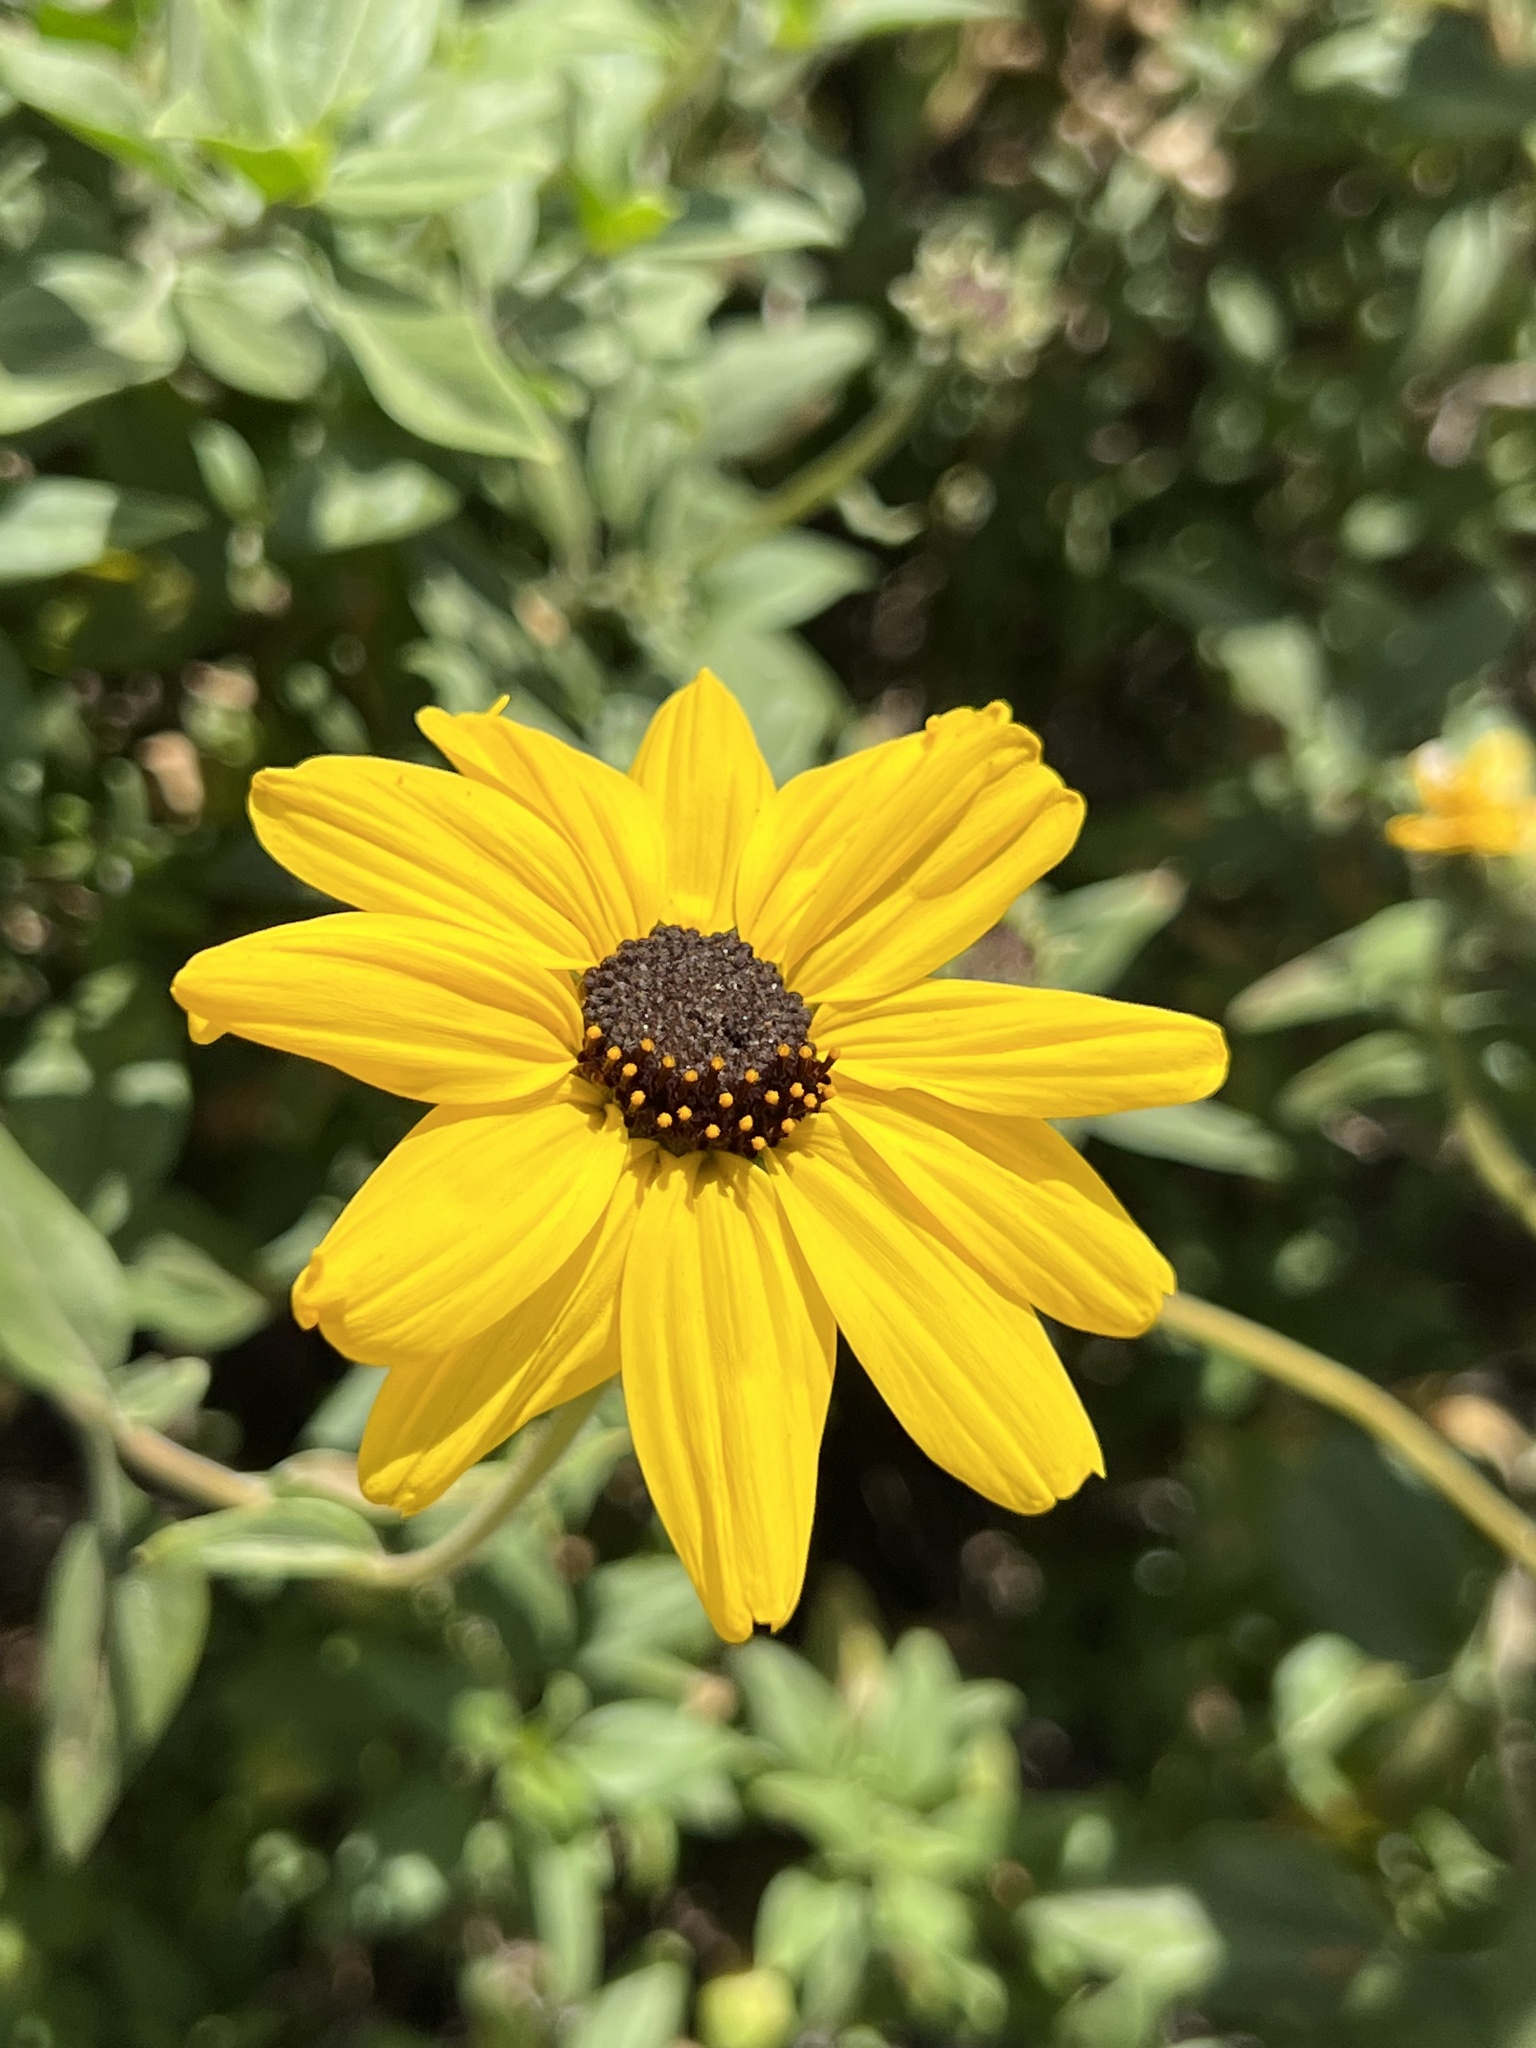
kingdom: Plantae
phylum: Tracheophyta
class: Magnoliopsida
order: Asterales
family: Asteraceae
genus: Encelia
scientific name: Encelia californica
